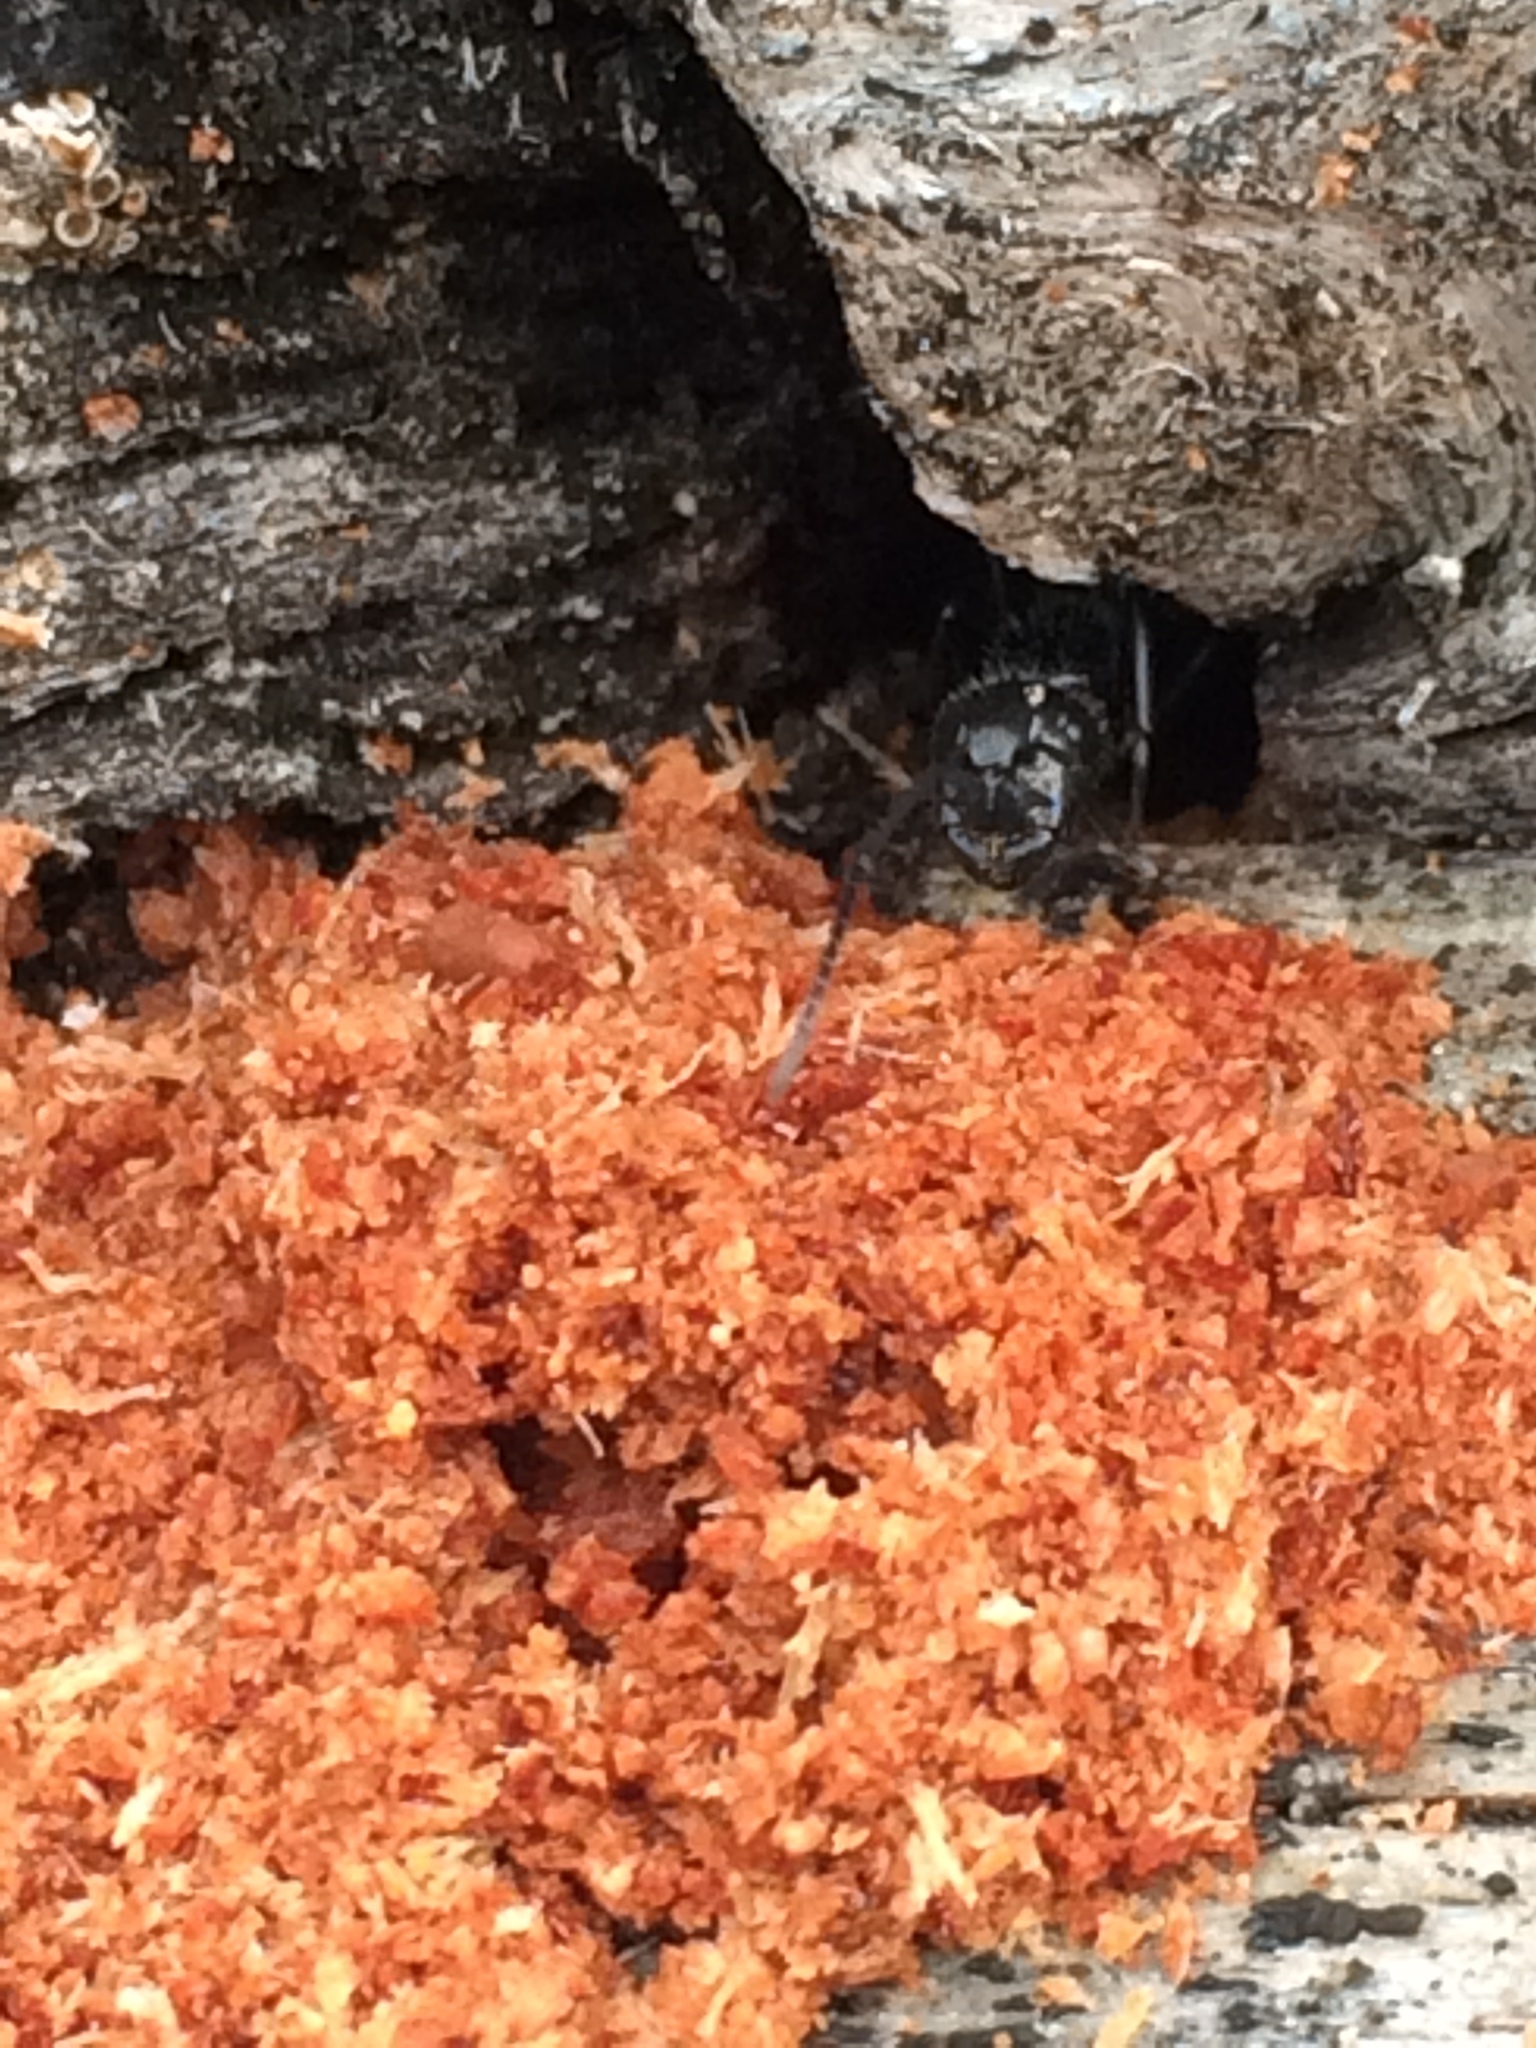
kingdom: Animalia
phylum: Arthropoda
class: Insecta
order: Hymenoptera
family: Formicidae
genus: Camponotus
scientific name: Camponotus
